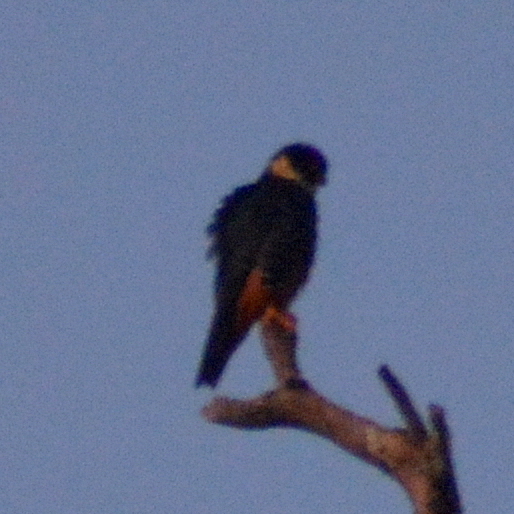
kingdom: Animalia
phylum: Chordata
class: Aves
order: Falconiformes
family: Falconidae
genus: Falco
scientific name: Falco rufigularis
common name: Bat falcon
